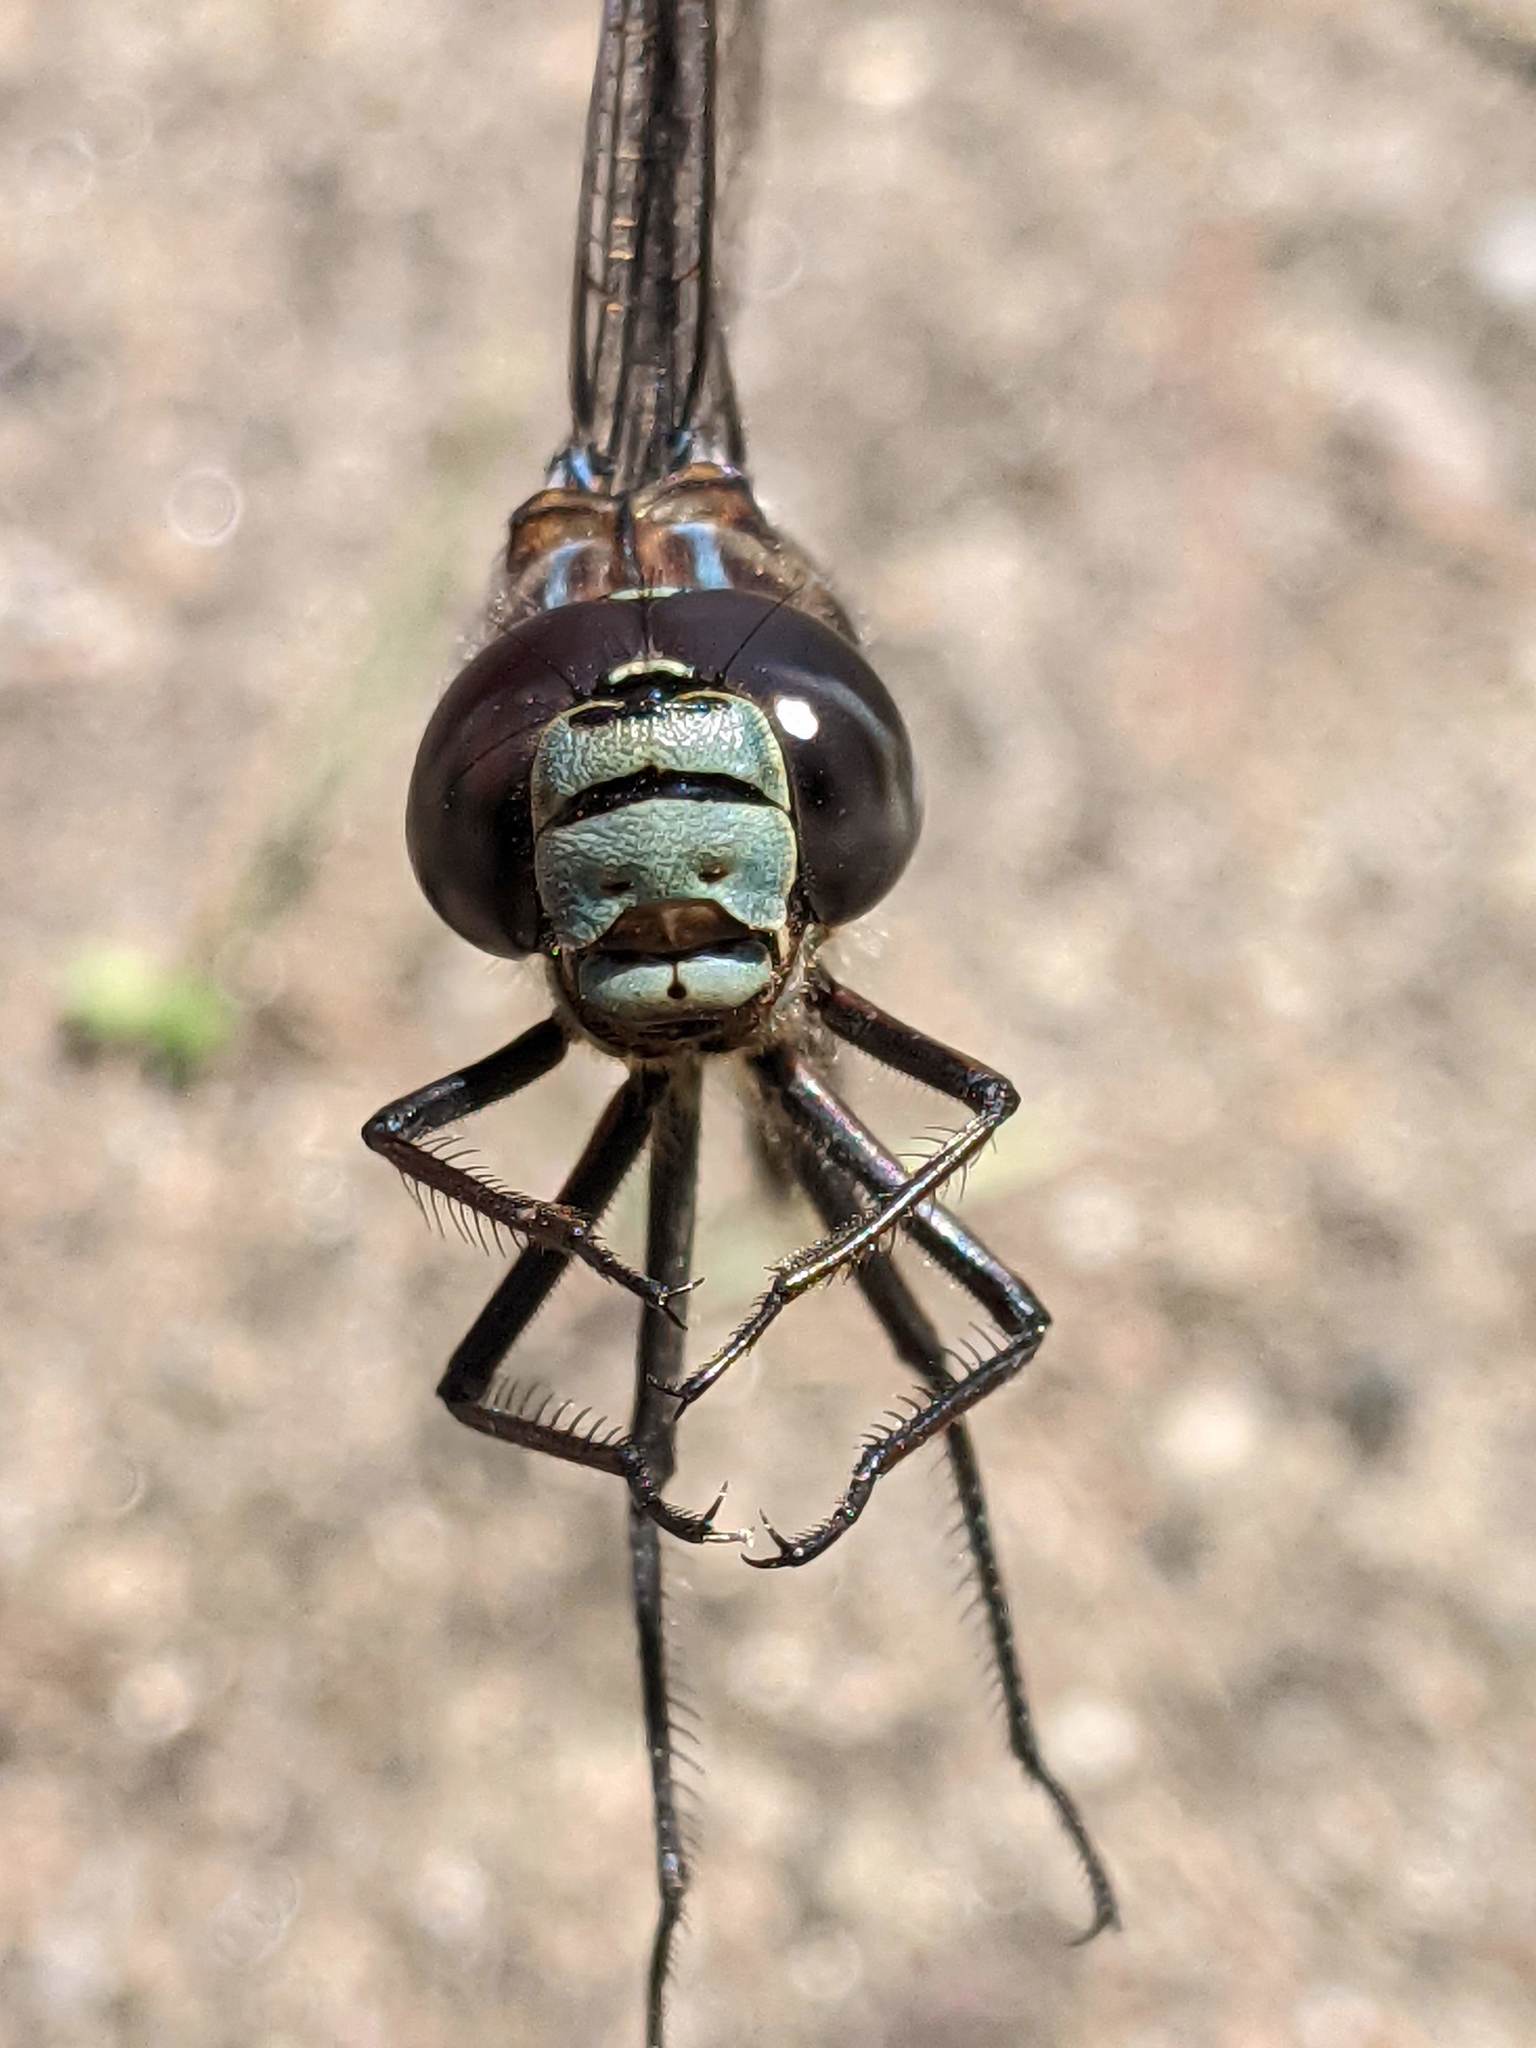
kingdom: Animalia
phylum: Arthropoda
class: Insecta
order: Odonata
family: Aeshnidae
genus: Aeshna
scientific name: Aeshna eremita
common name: Lake darner
